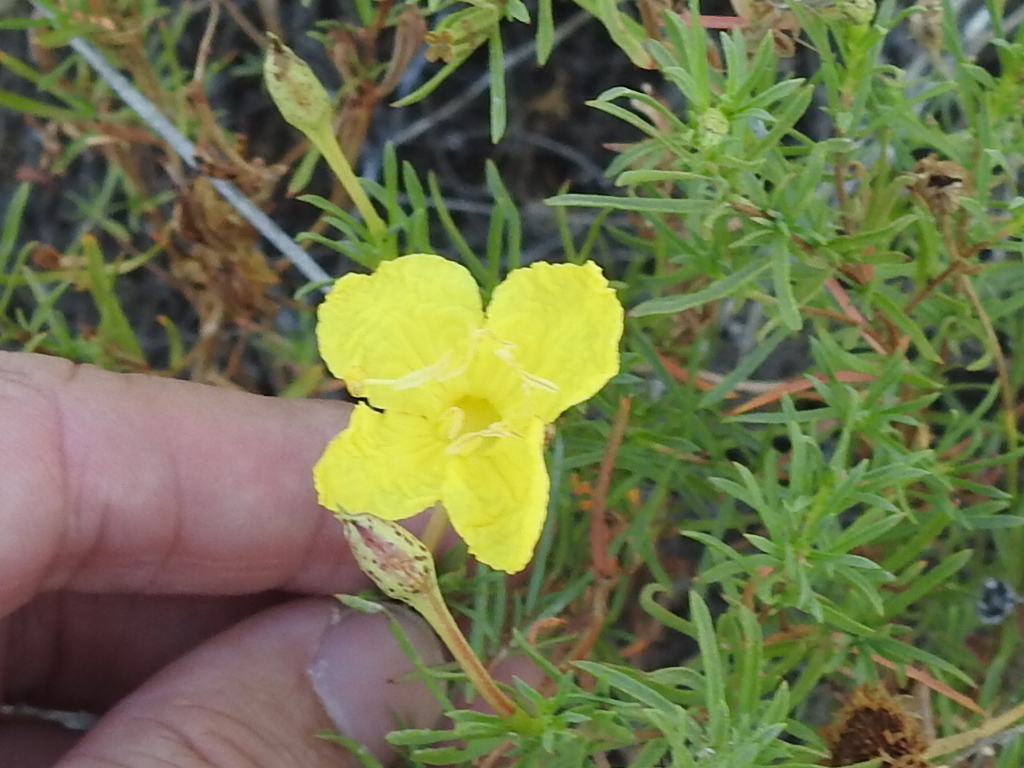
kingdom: Plantae
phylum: Tracheophyta
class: Magnoliopsida
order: Myrtales
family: Onagraceae
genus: Oenothera
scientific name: Oenothera hartwegii
